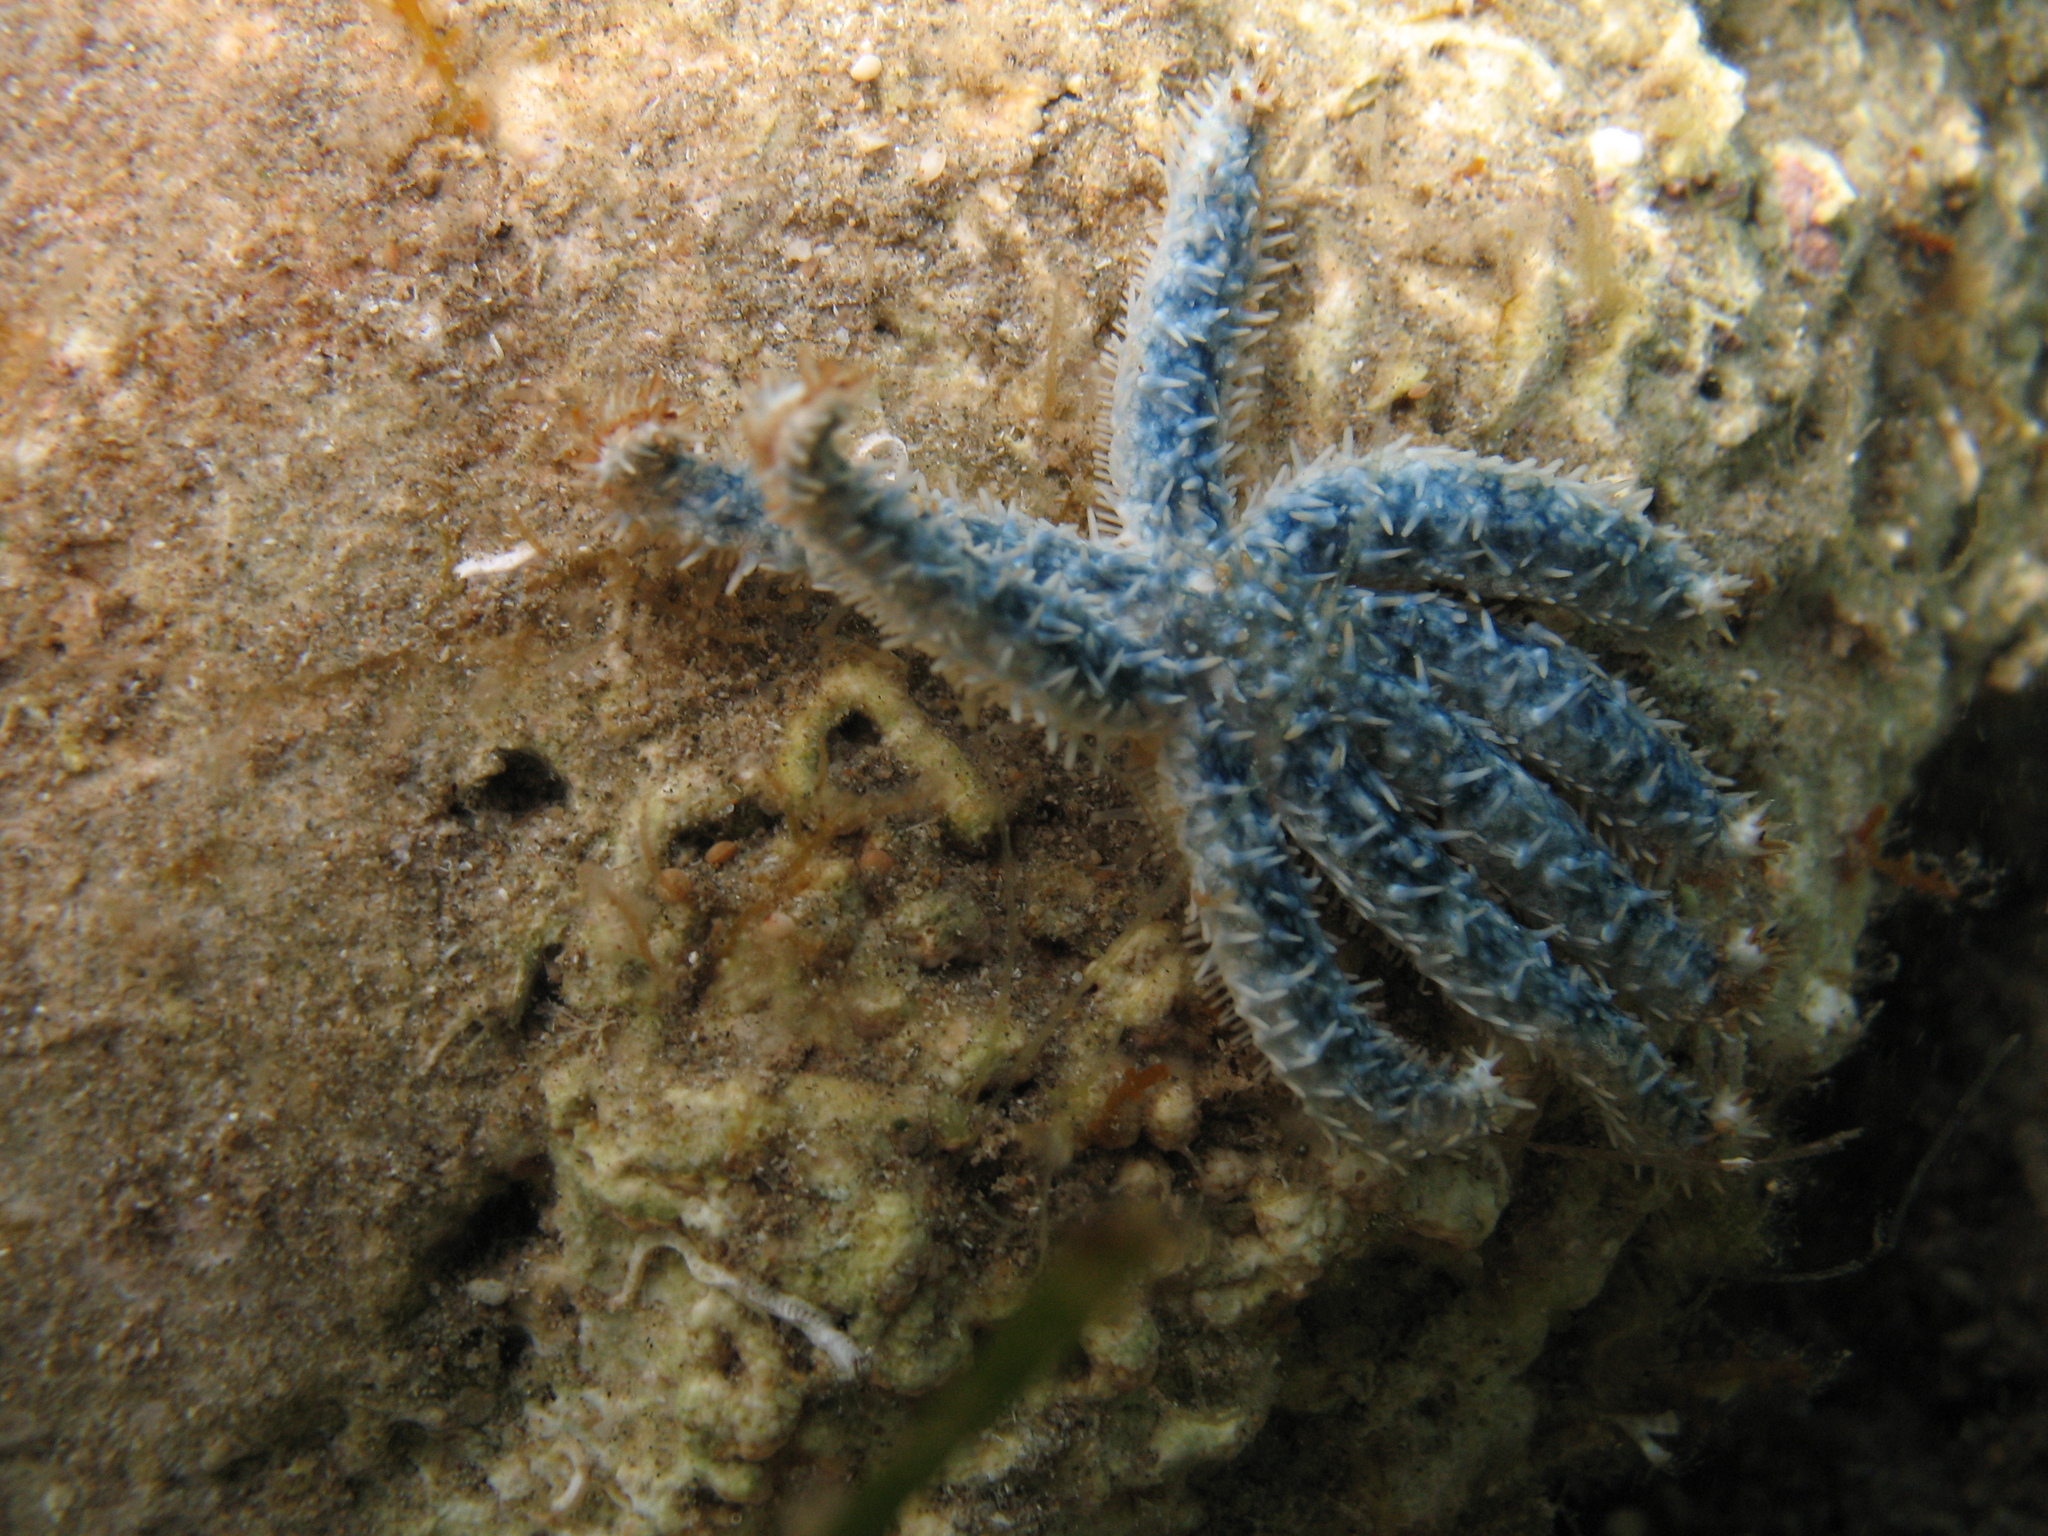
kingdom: Animalia
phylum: Echinodermata
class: Asteroidea
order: Forcipulatida
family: Asteriidae
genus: Coscinasterias
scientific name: Coscinasterias tenuispina
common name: Blue spiny starfish
